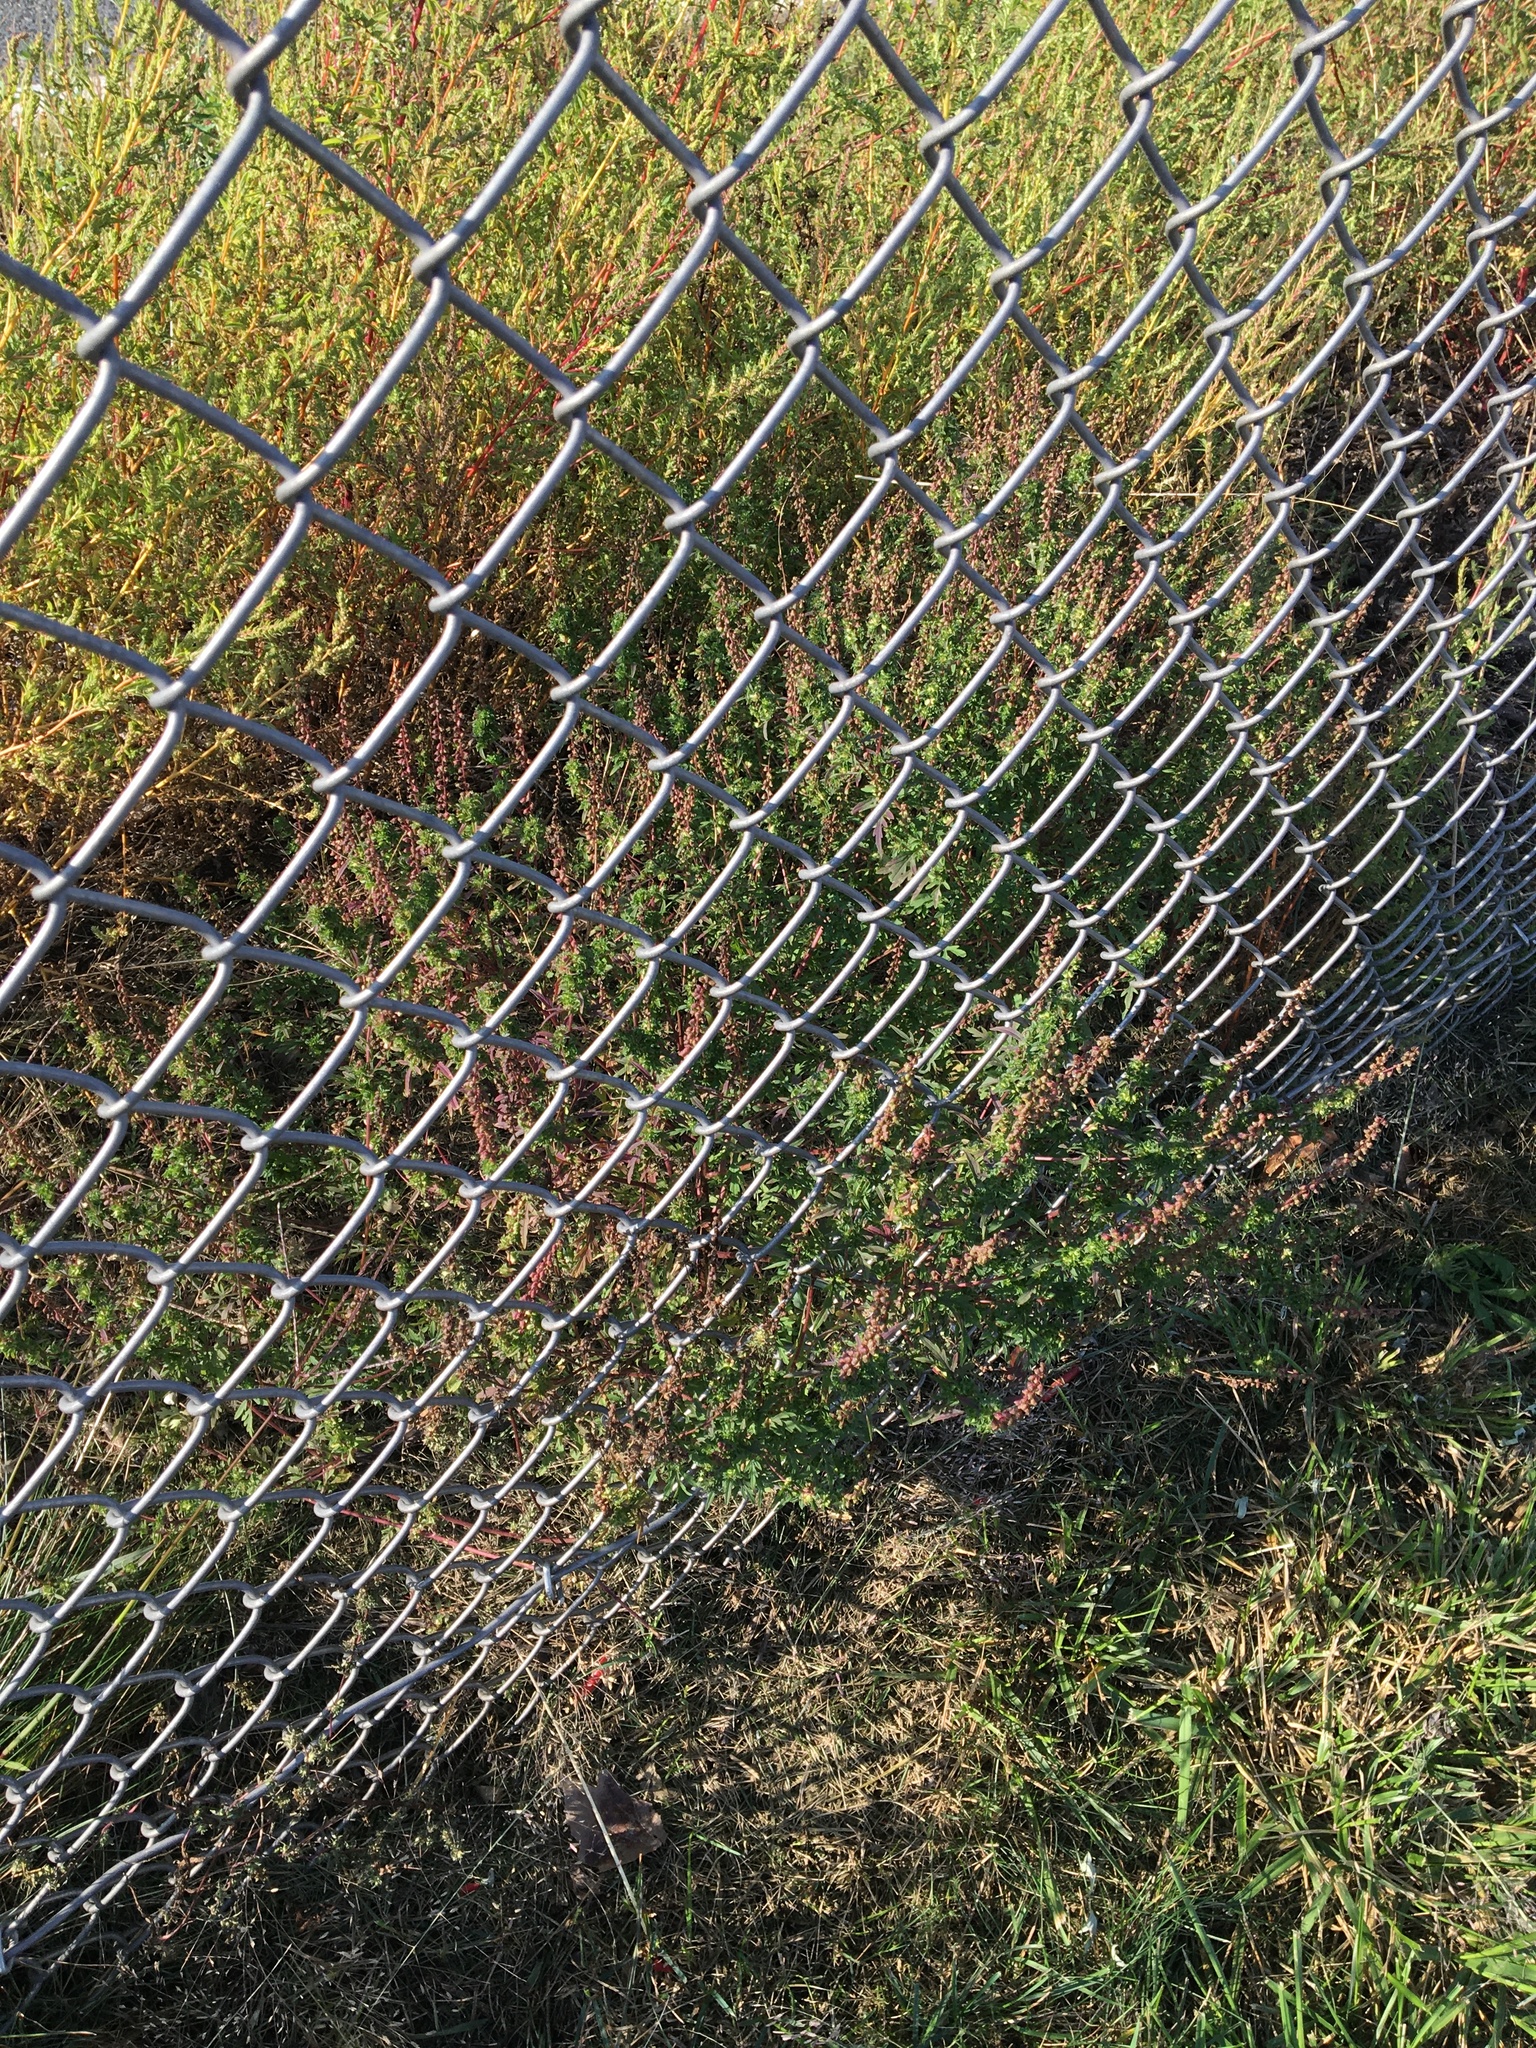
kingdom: Plantae
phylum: Tracheophyta
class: Magnoliopsida
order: Asterales
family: Asteraceae
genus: Ambrosia
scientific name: Ambrosia artemisiifolia
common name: Annual ragweed
